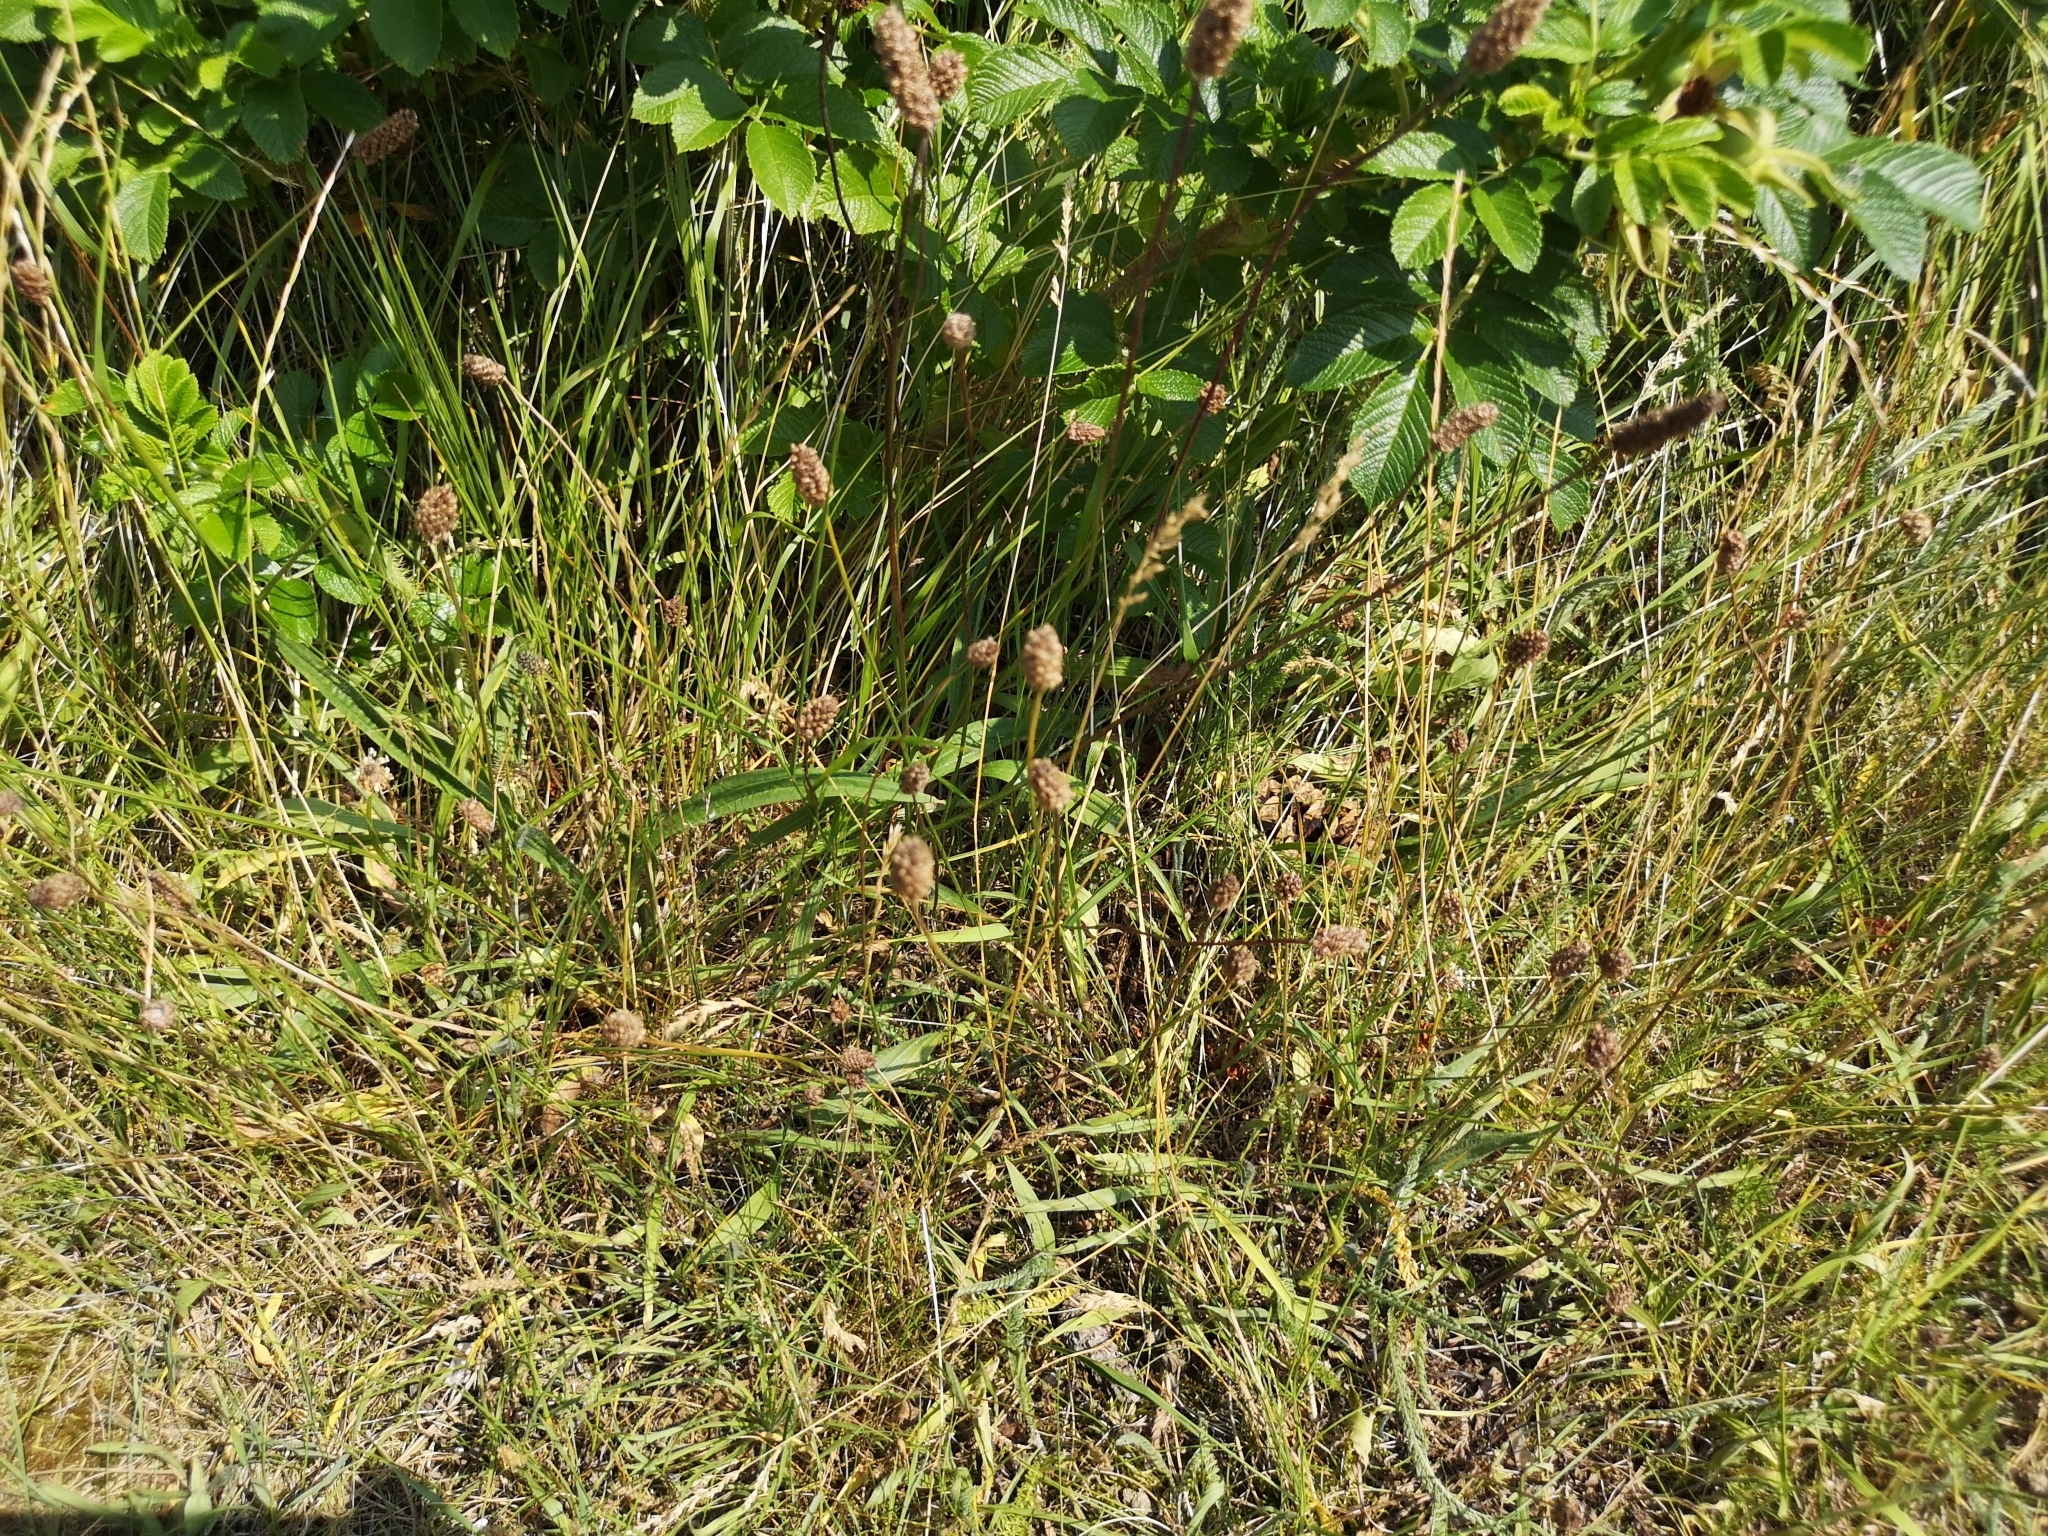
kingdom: Plantae
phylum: Tracheophyta
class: Magnoliopsida
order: Lamiales
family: Plantaginaceae
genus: Plantago
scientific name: Plantago lanceolata
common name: Ribwort plantain
